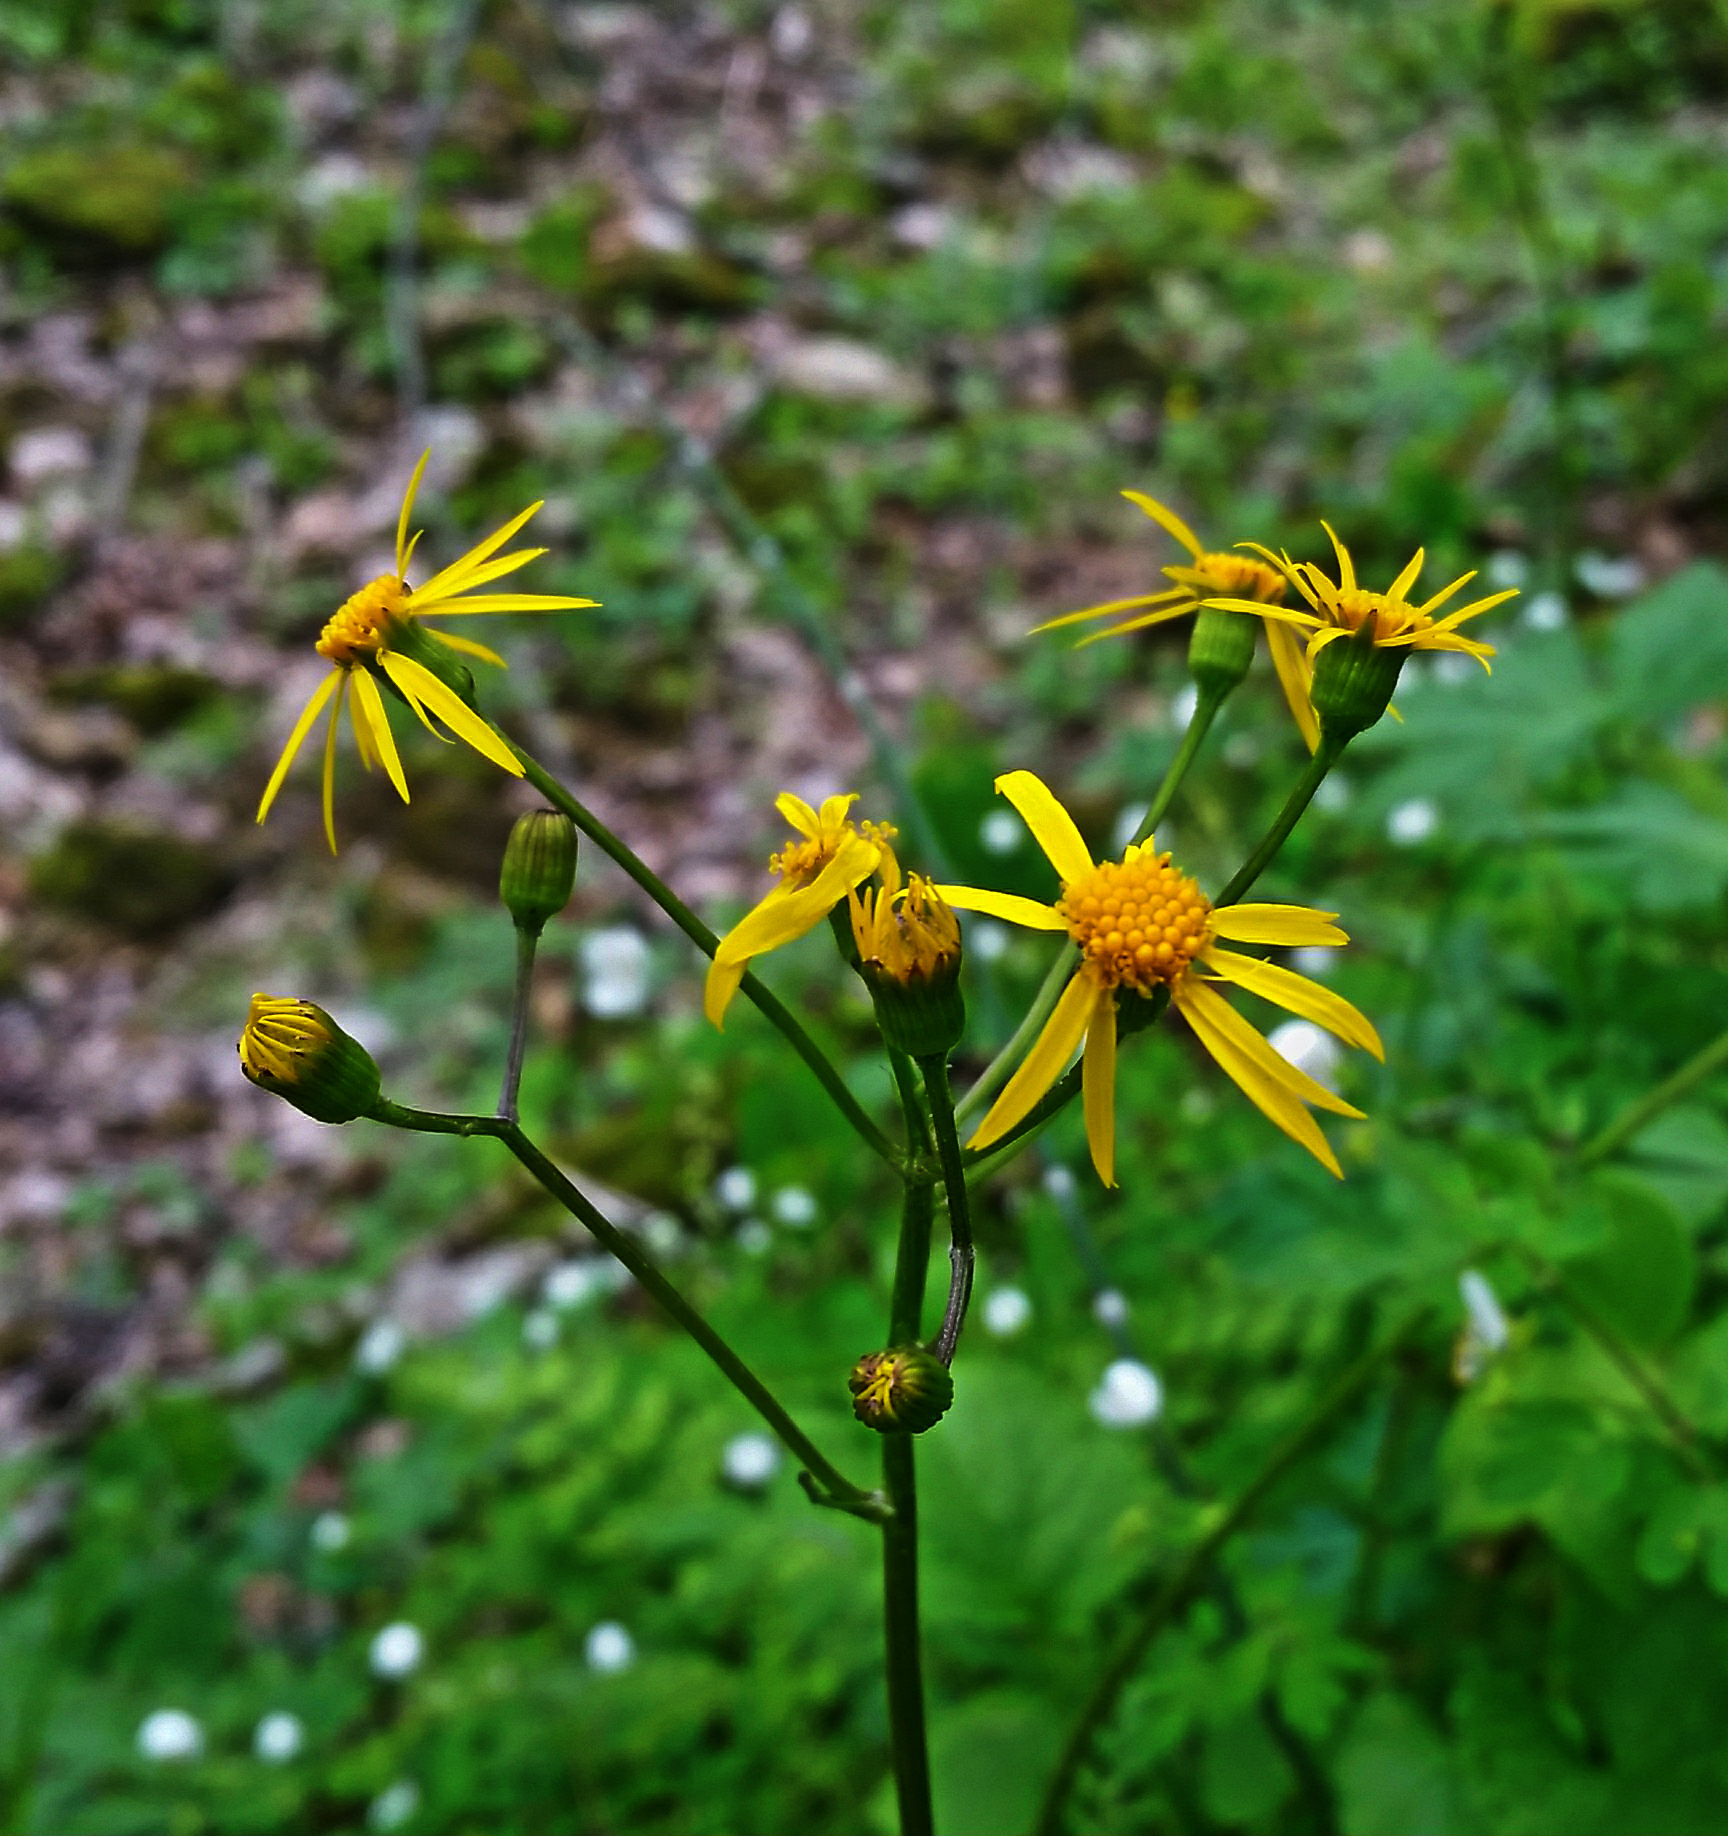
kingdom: Plantae
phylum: Tracheophyta
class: Magnoliopsida
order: Asterales
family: Asteraceae
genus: Packera
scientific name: Packera aurea
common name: Golden groundsel
